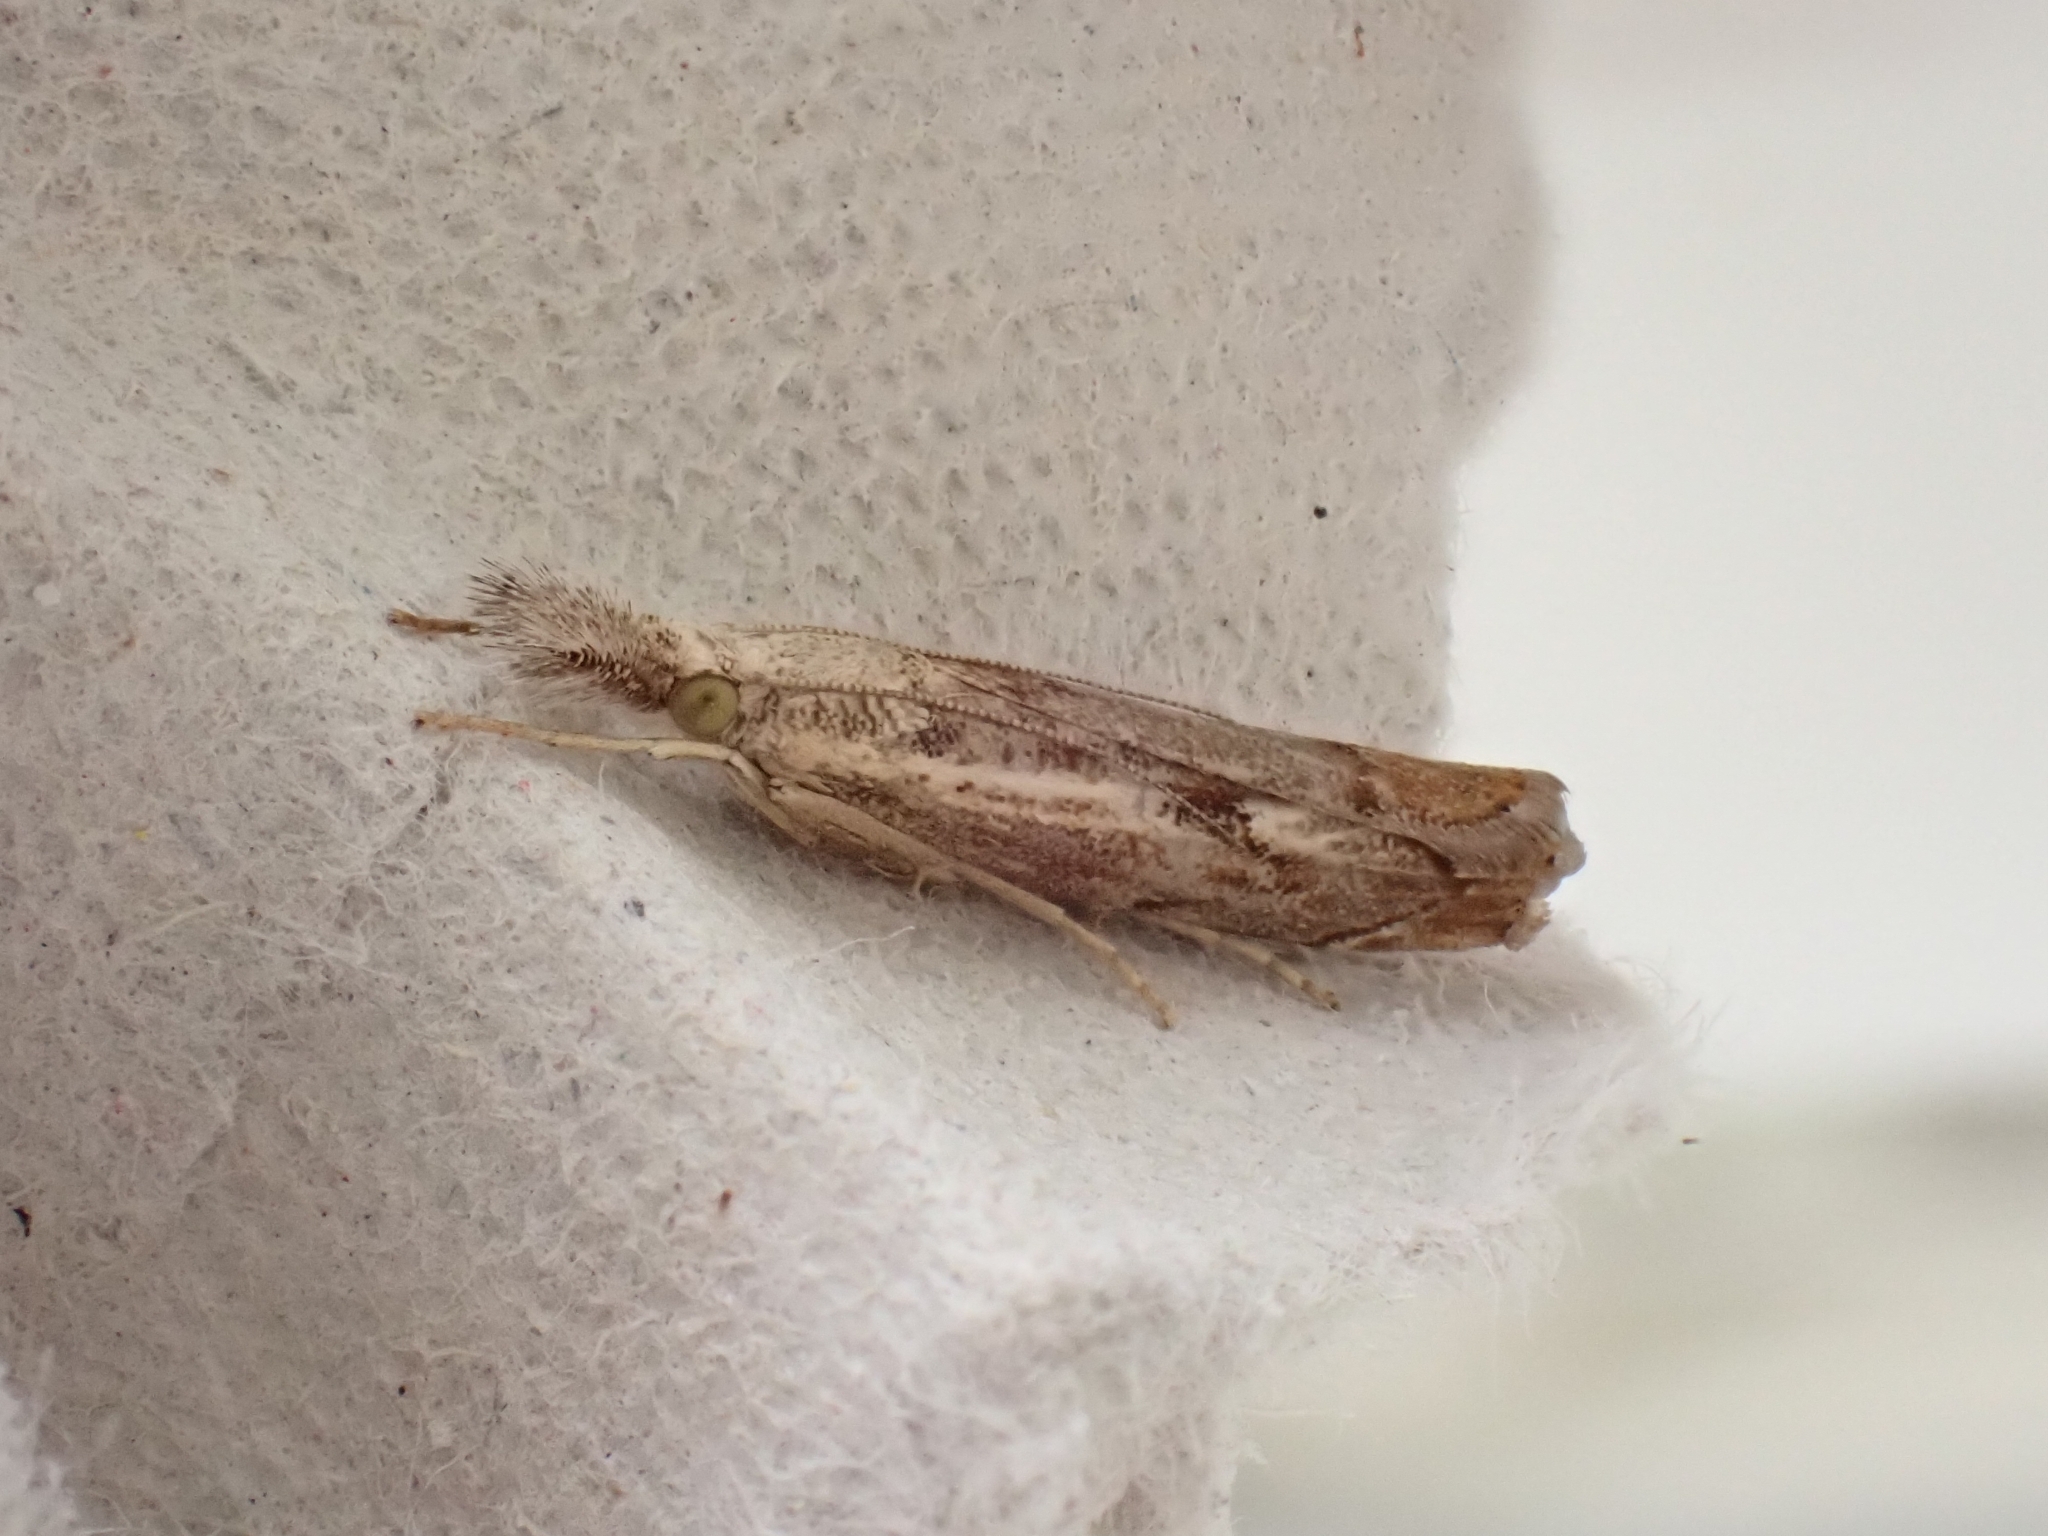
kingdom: Animalia
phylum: Arthropoda
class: Insecta
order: Lepidoptera
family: Crambidae
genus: Agriphila
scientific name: Agriphila geniculea
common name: Elbow-stripe grass-veneer
